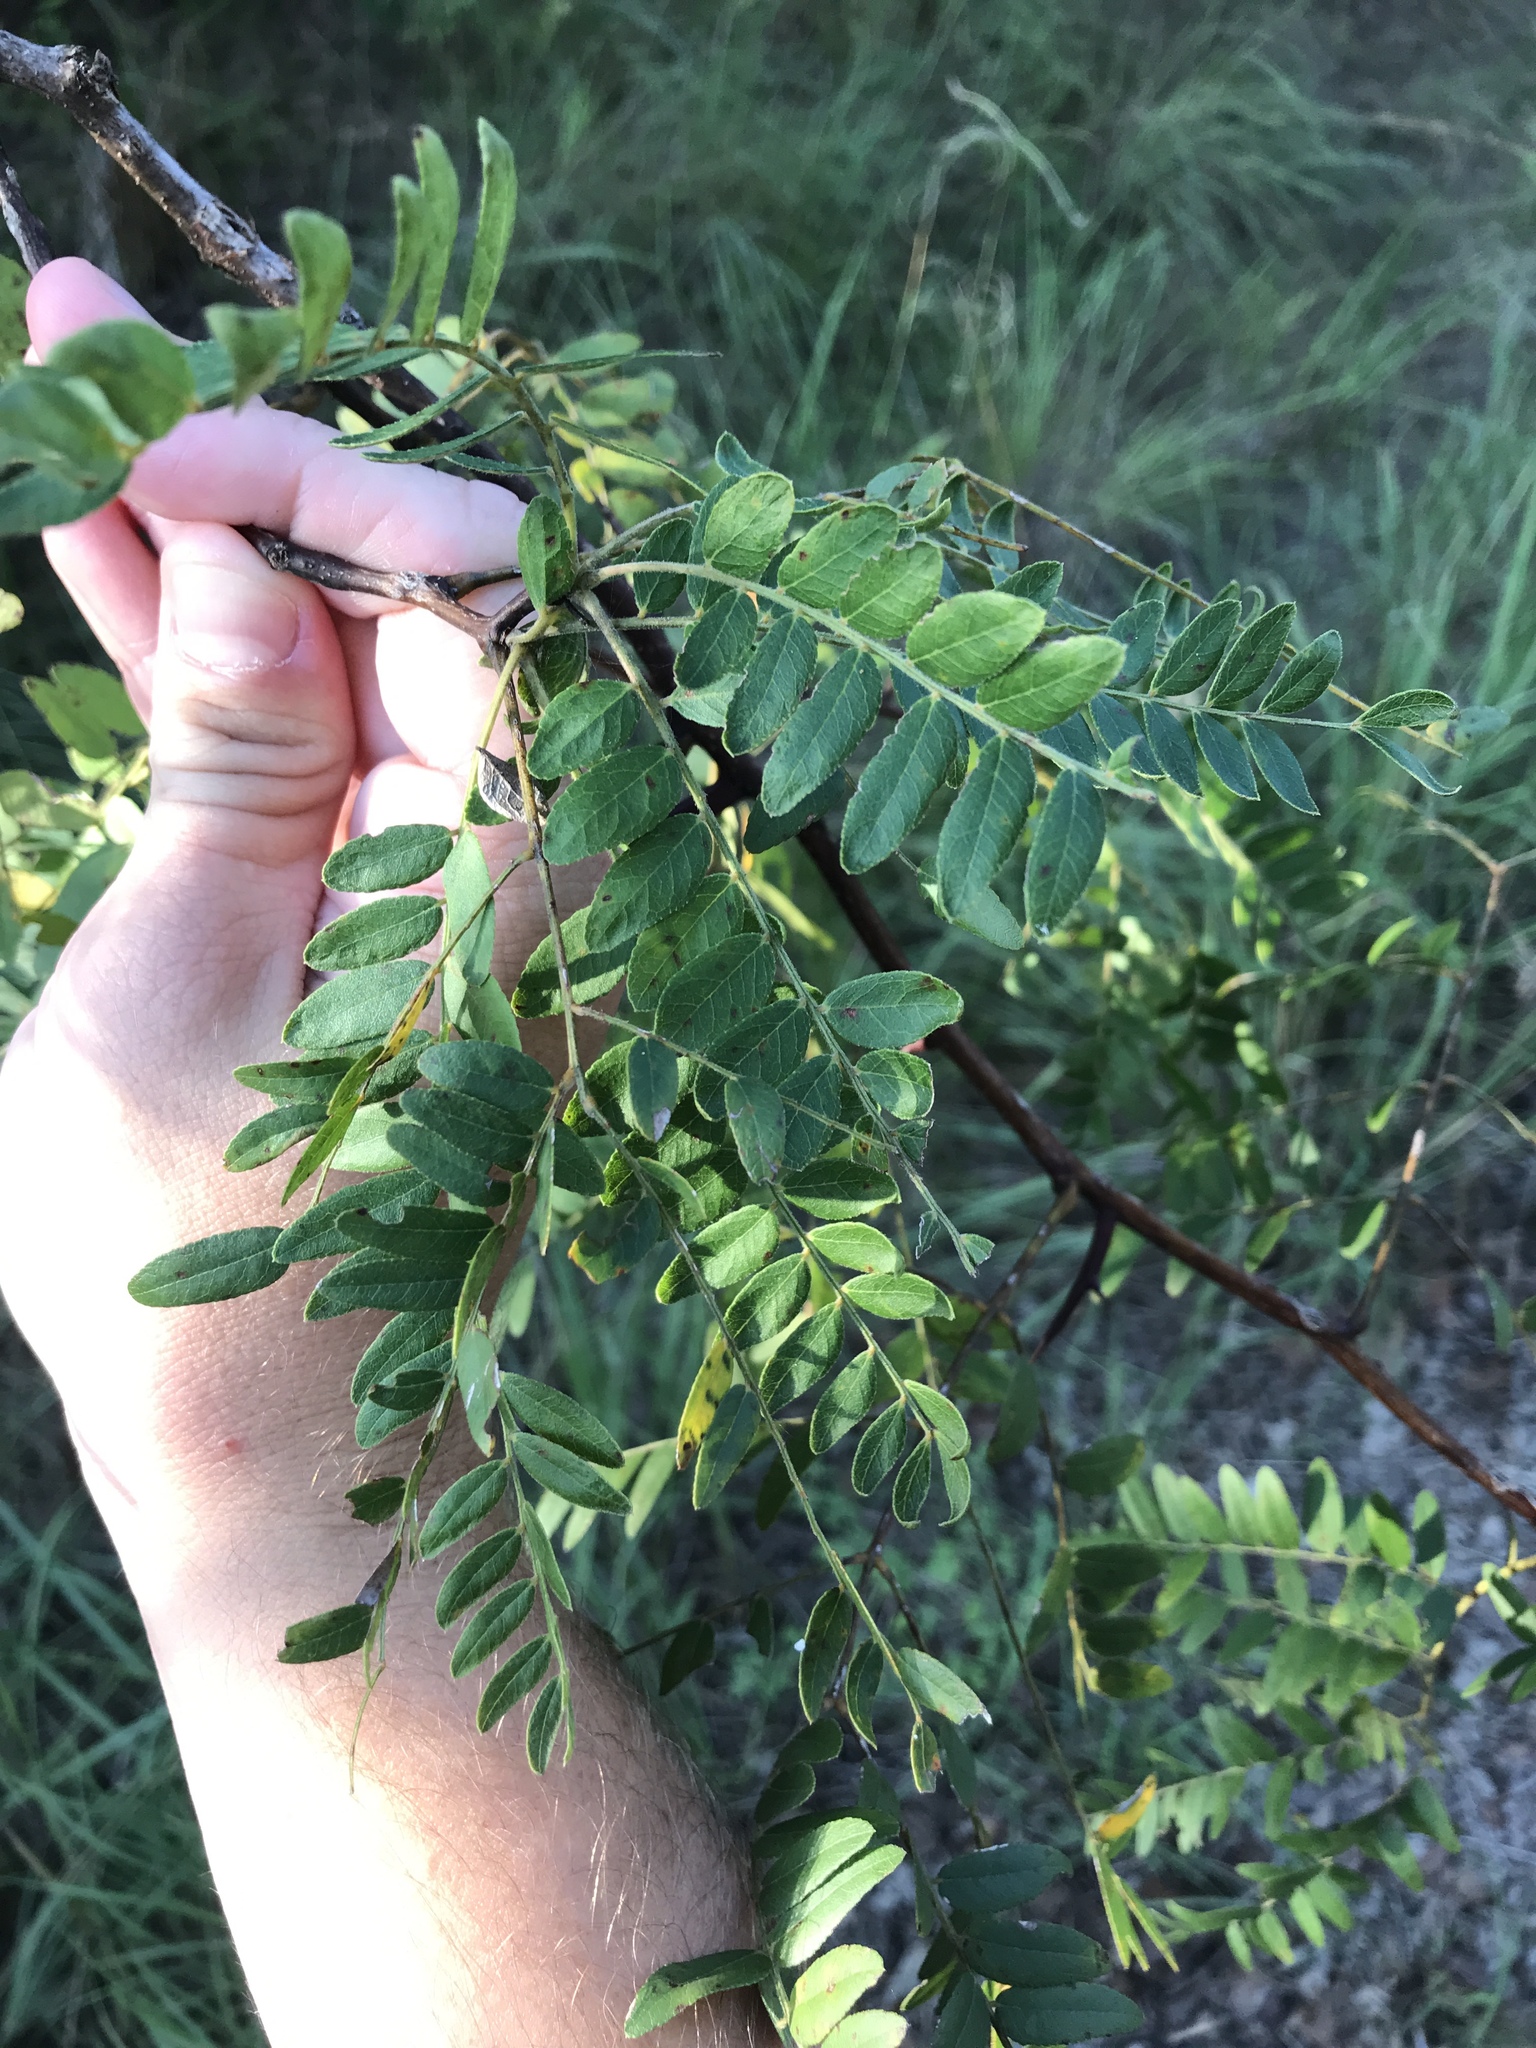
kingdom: Plantae
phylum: Tracheophyta
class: Magnoliopsida
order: Fabales
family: Fabaceae
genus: Gleditsia
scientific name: Gleditsia triacanthos
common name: Common honeylocust
